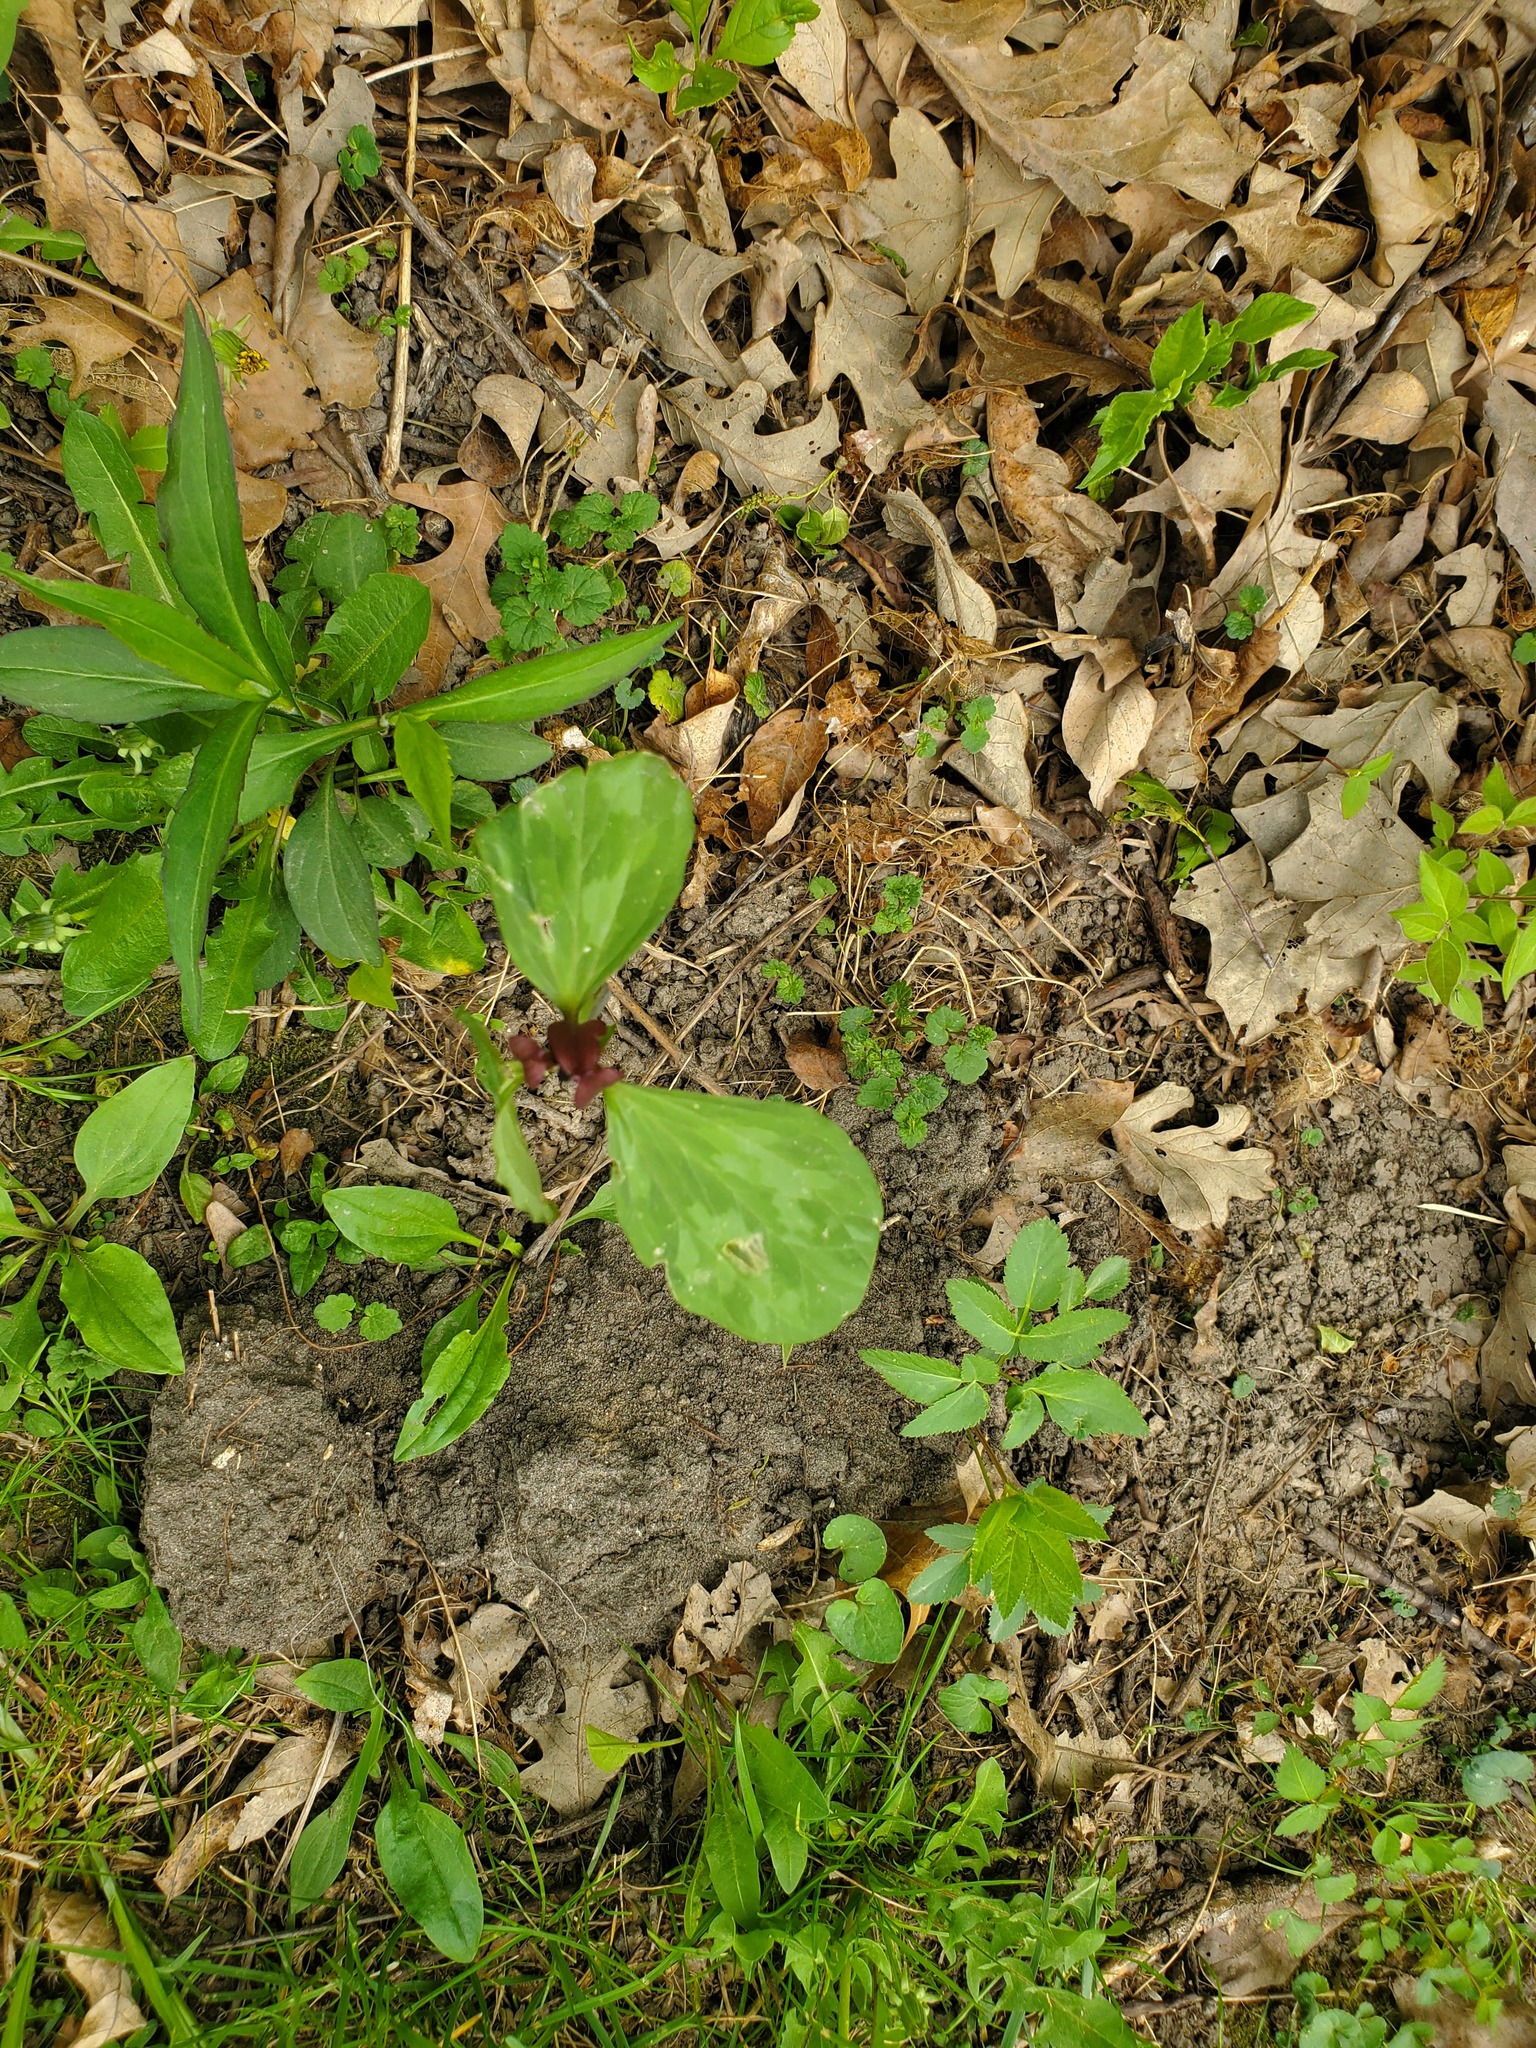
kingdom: Plantae
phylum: Tracheophyta
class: Liliopsida
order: Liliales
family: Melanthiaceae
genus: Trillium
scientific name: Trillium recurvatum
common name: Bloody butcher
